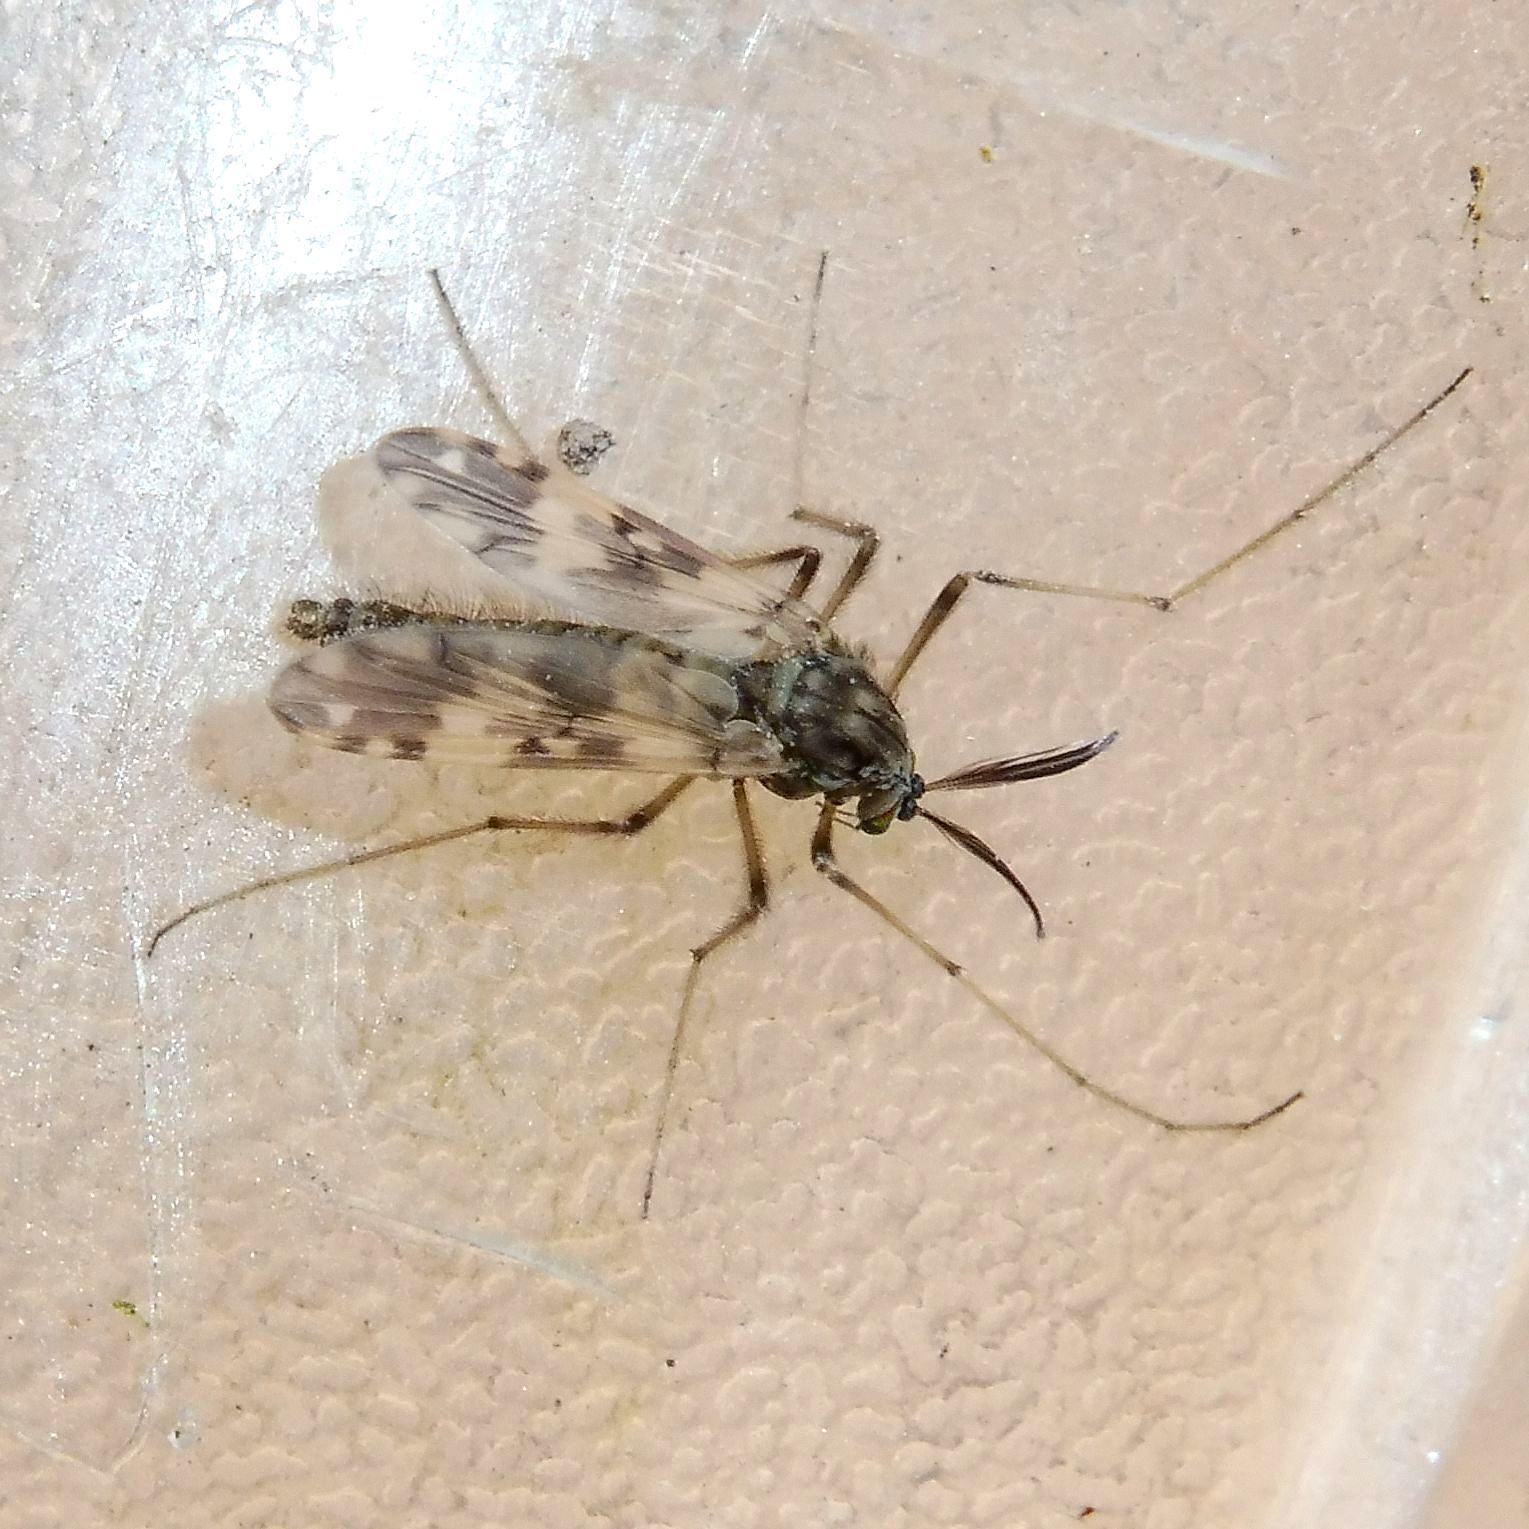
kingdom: Animalia
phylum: Arthropoda
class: Insecta
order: Diptera
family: Chironomidae
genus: Psectrotanypus
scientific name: Psectrotanypus varius
